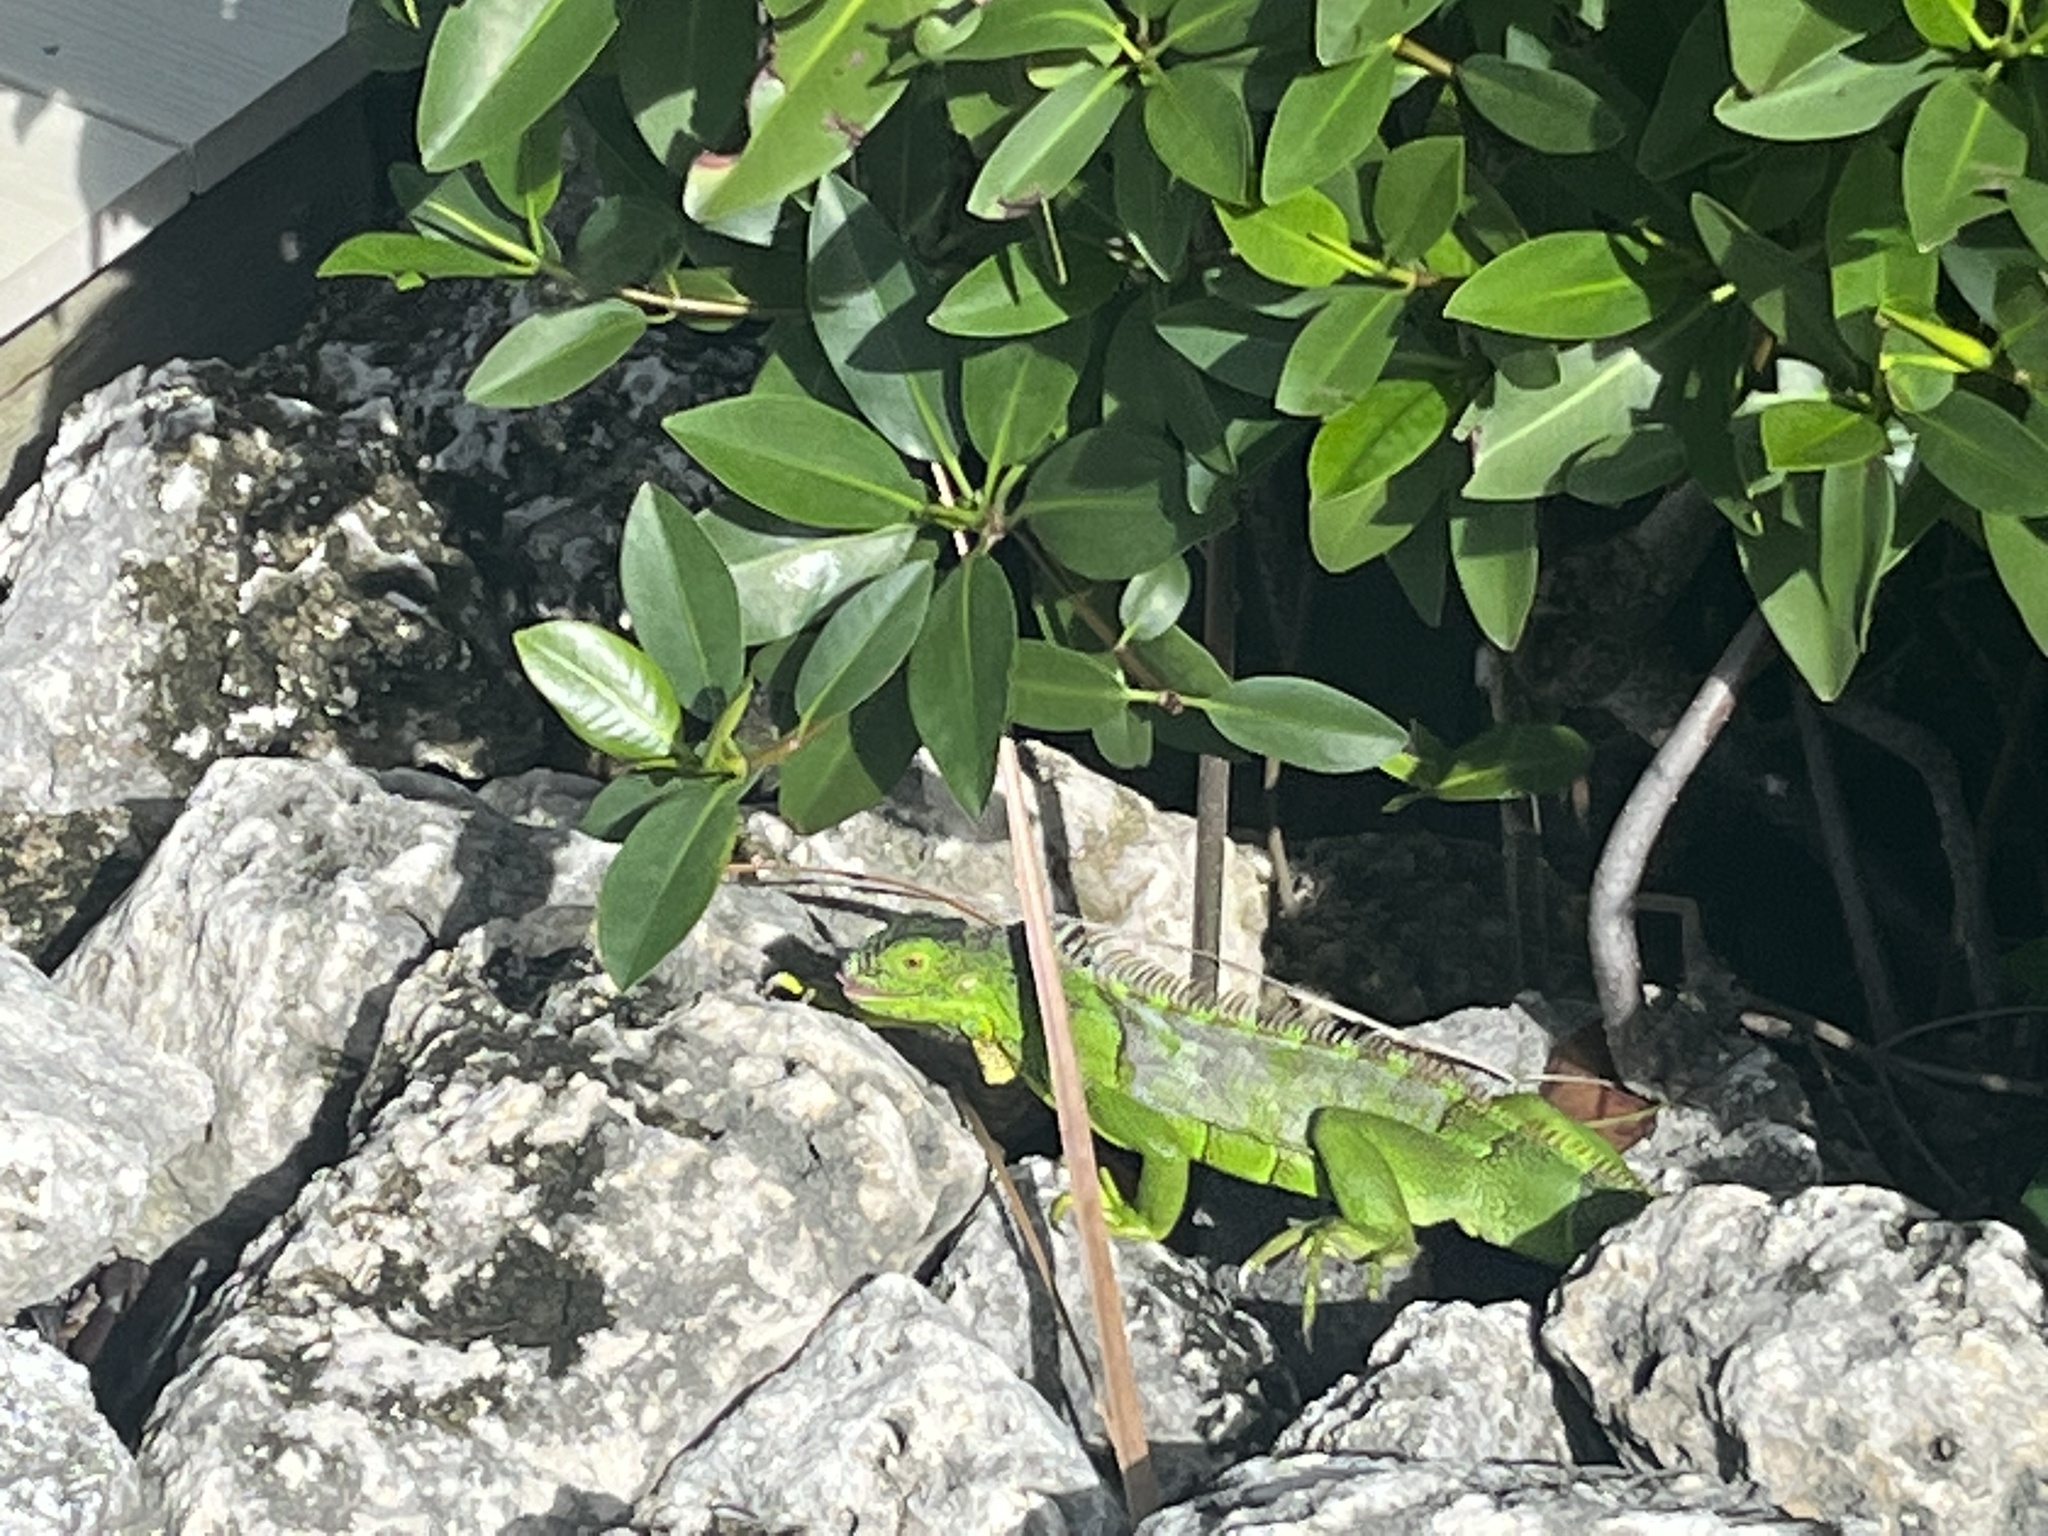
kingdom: Animalia
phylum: Chordata
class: Squamata
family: Iguanidae
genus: Iguana
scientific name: Iguana iguana
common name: Green iguana
